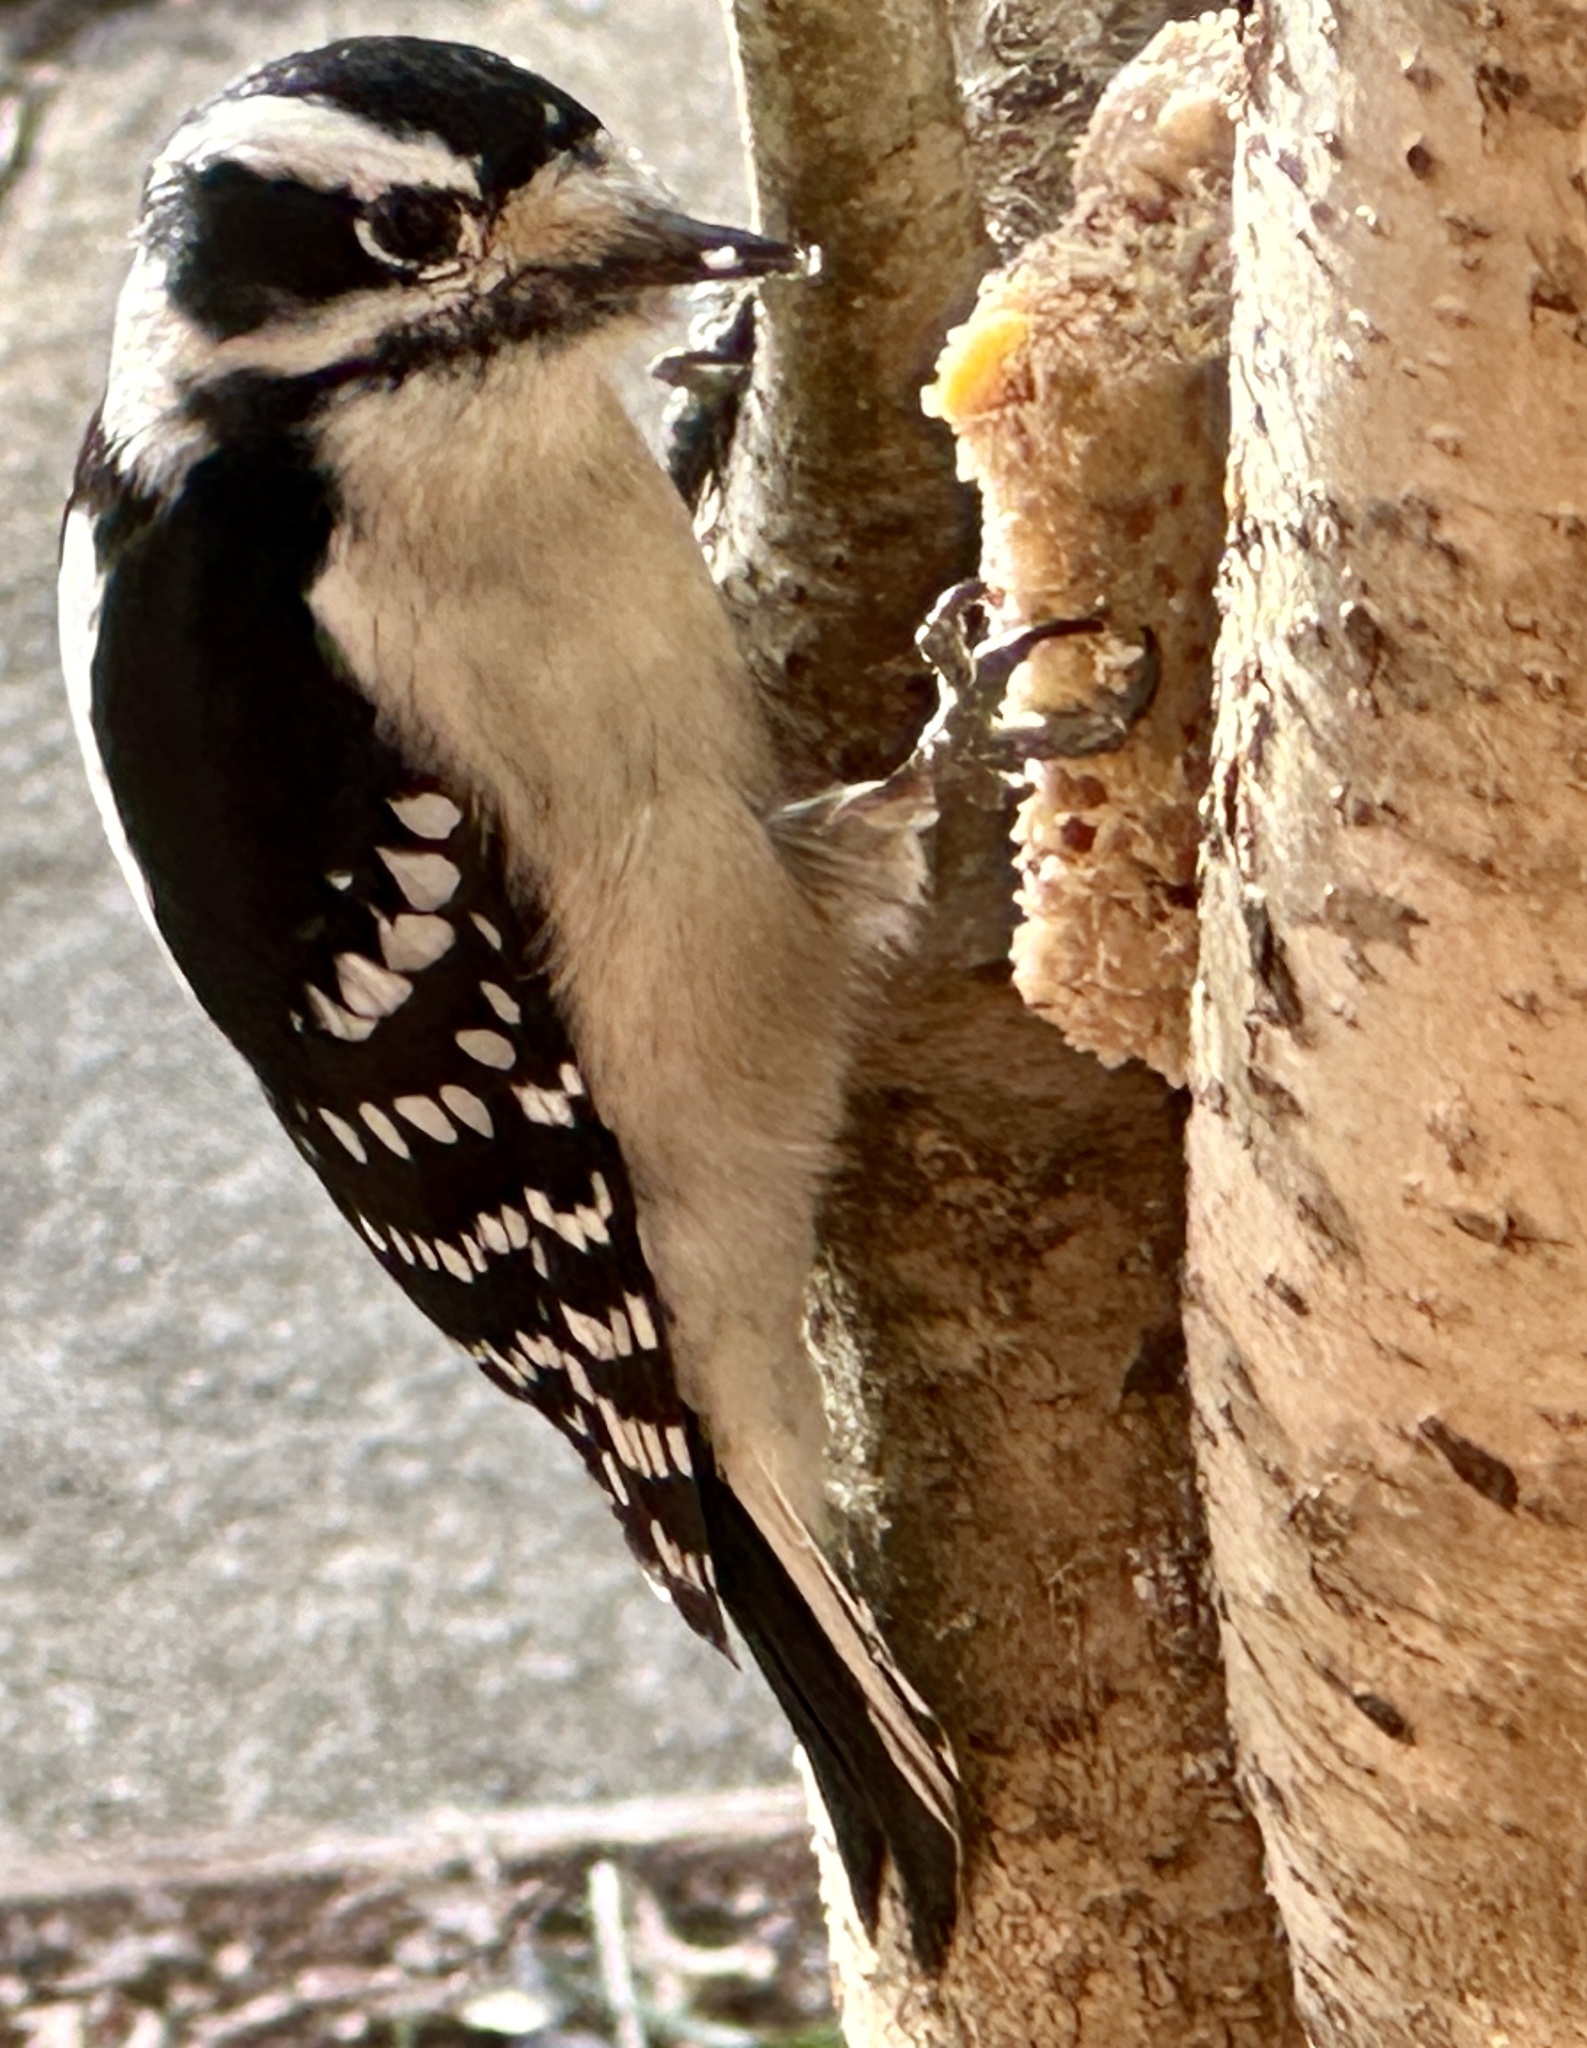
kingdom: Animalia
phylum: Chordata
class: Aves
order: Piciformes
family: Picidae
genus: Dryobates
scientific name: Dryobates pubescens
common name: Downy woodpecker
